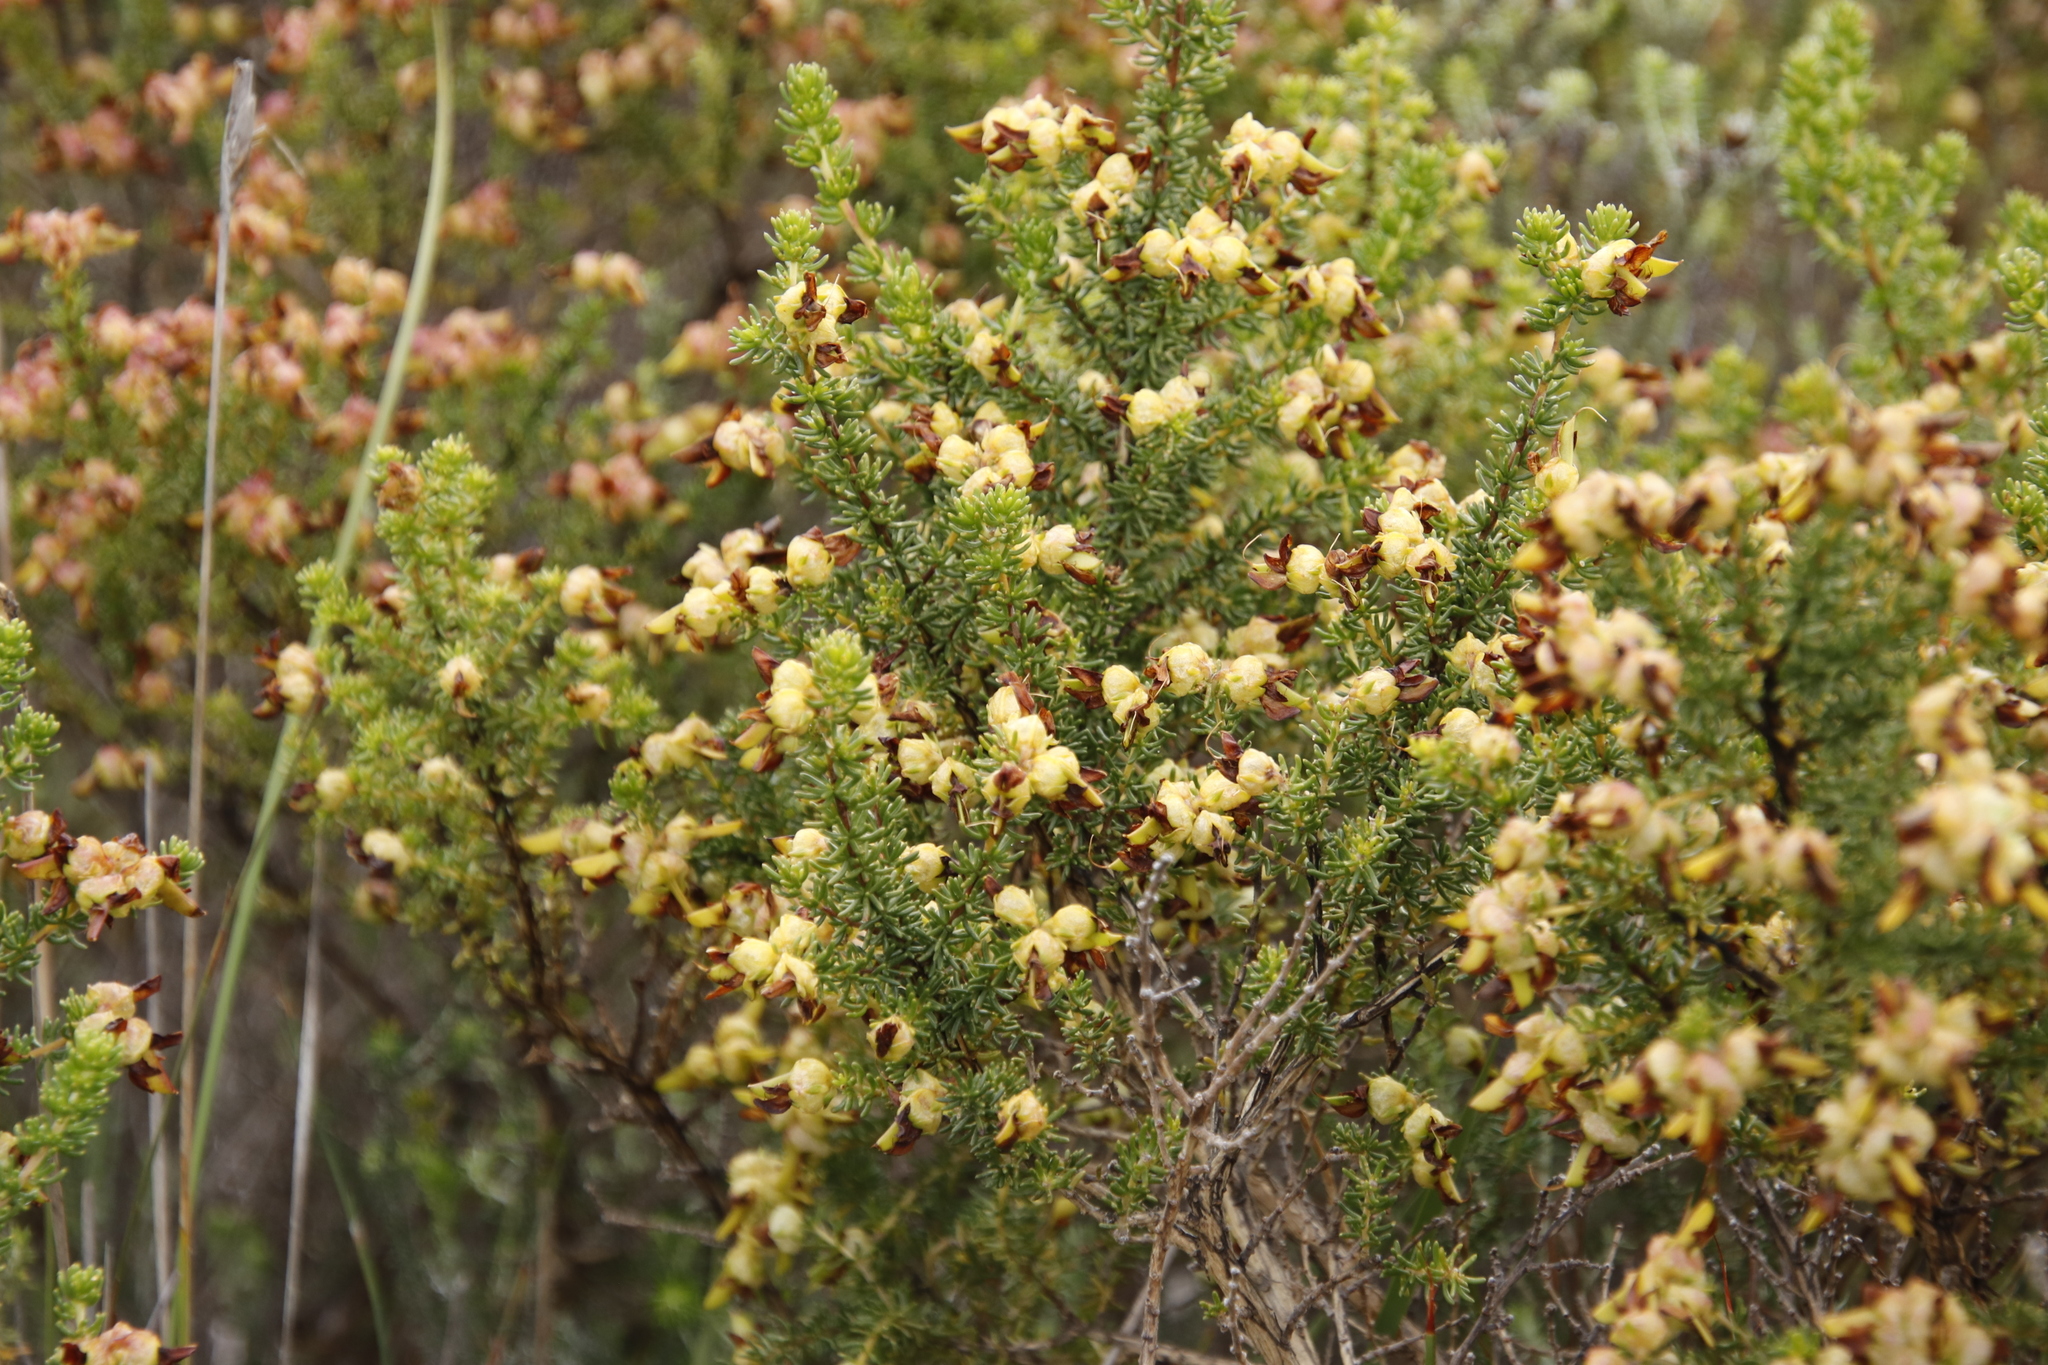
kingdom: Plantae
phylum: Tracheophyta
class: Magnoliopsida
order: Fabales
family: Fabaceae
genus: Aspalathus
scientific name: Aspalathus carnosa
